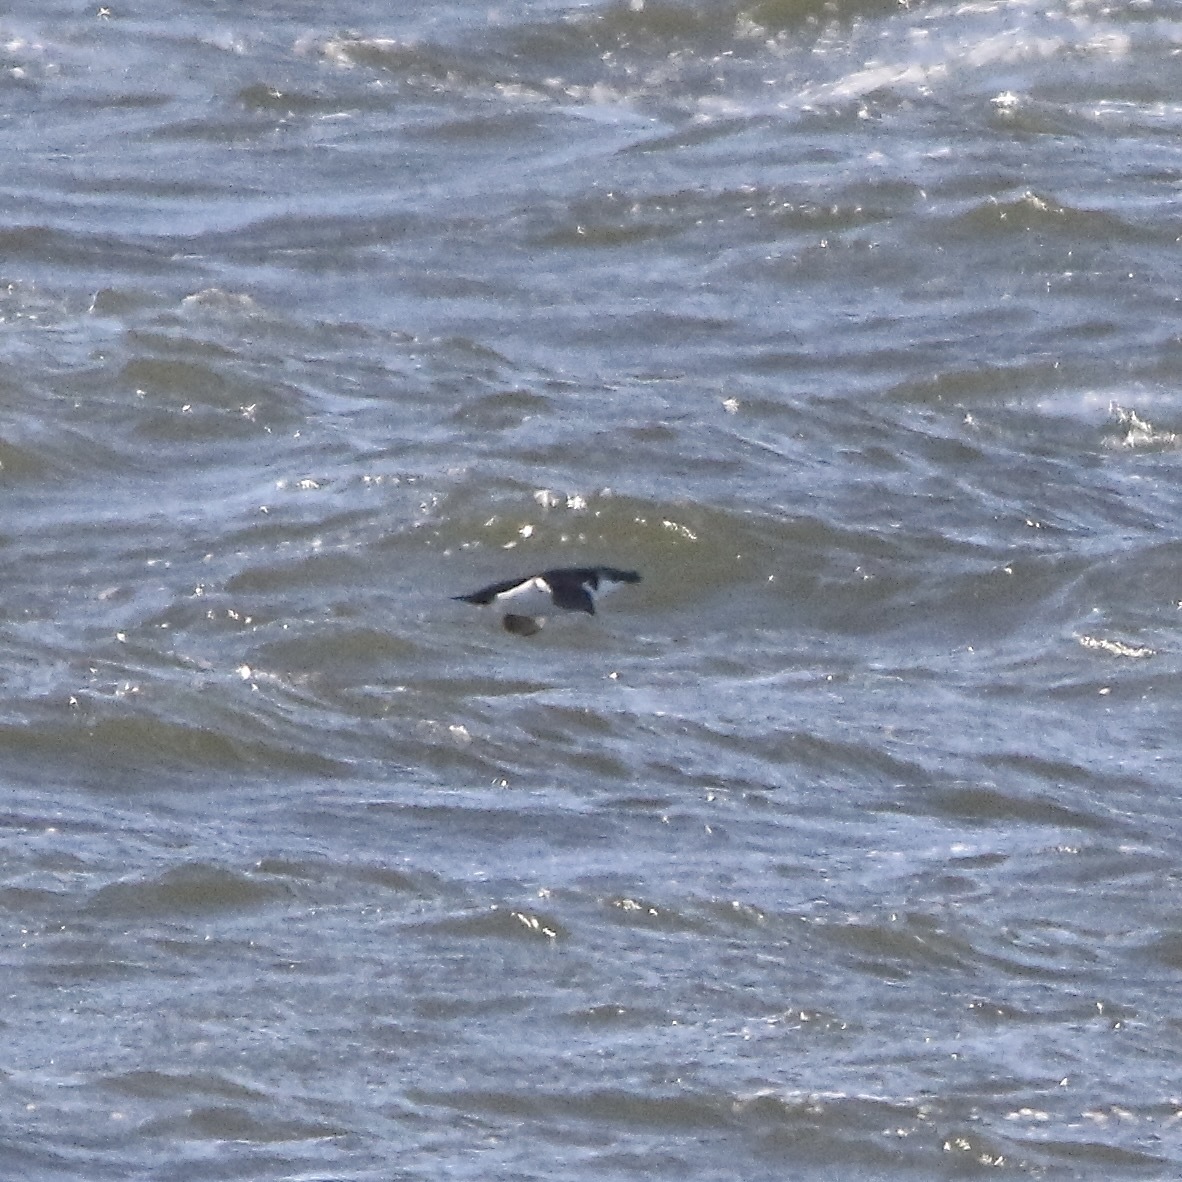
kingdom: Animalia
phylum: Chordata
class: Aves
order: Charadriiformes
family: Alcidae
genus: Alca
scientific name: Alca torda
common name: Razorbill
